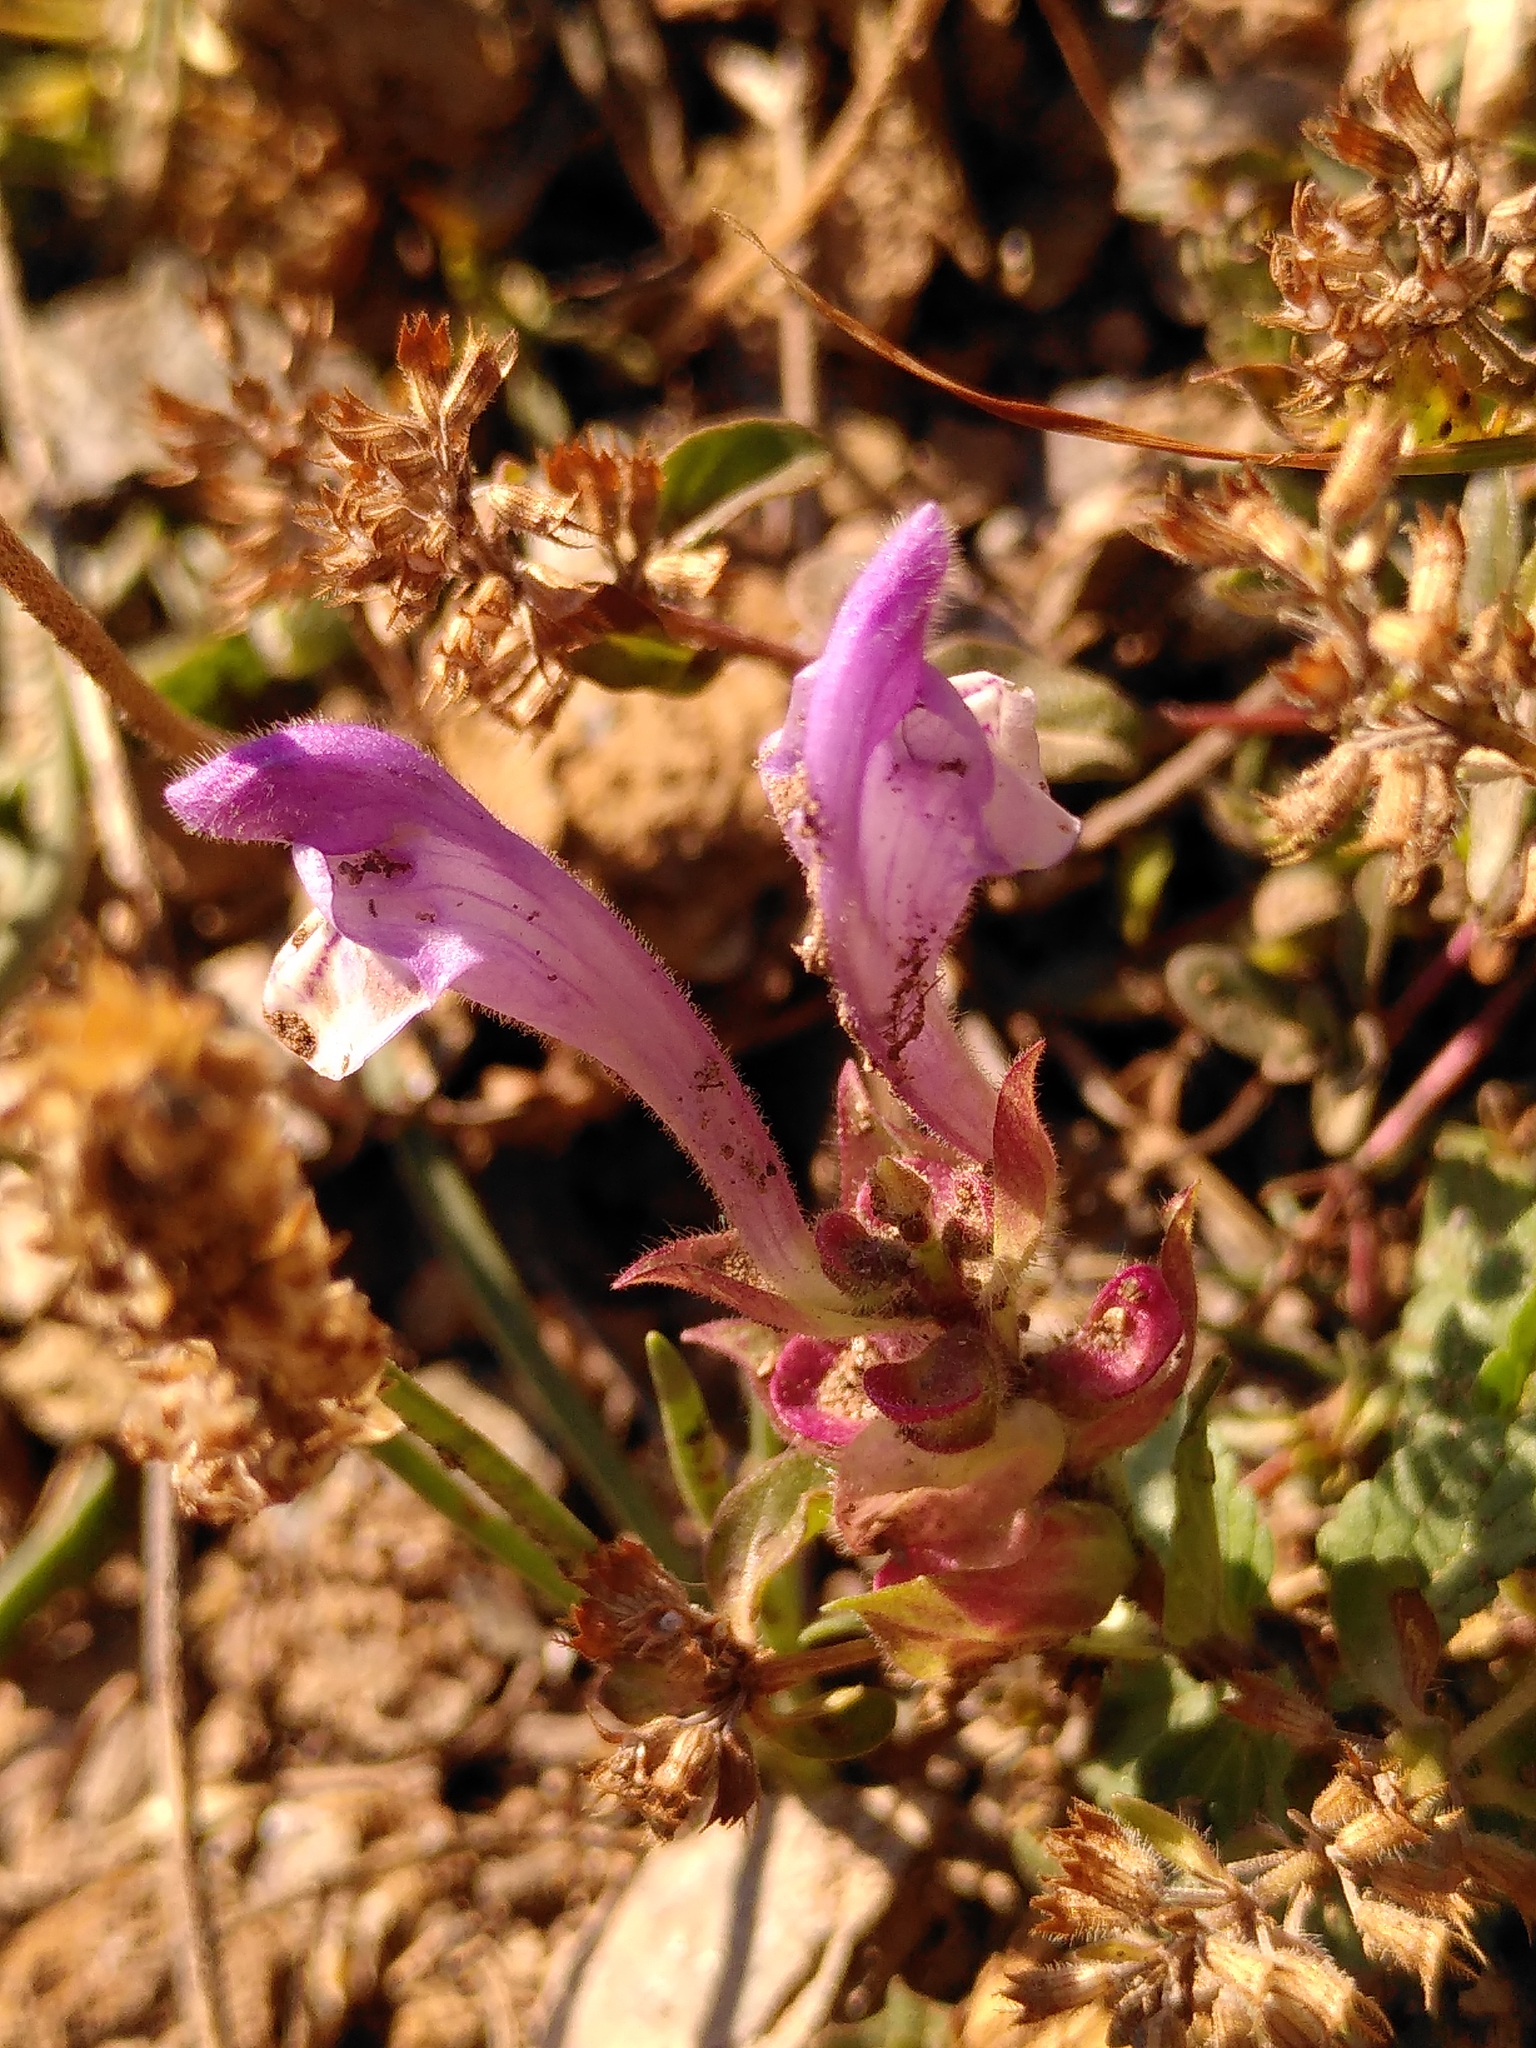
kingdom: Plantae
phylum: Tracheophyta
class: Magnoliopsida
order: Lamiales
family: Lamiaceae
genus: Scutellaria
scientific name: Scutellaria alpina
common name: Alpine scullcap
